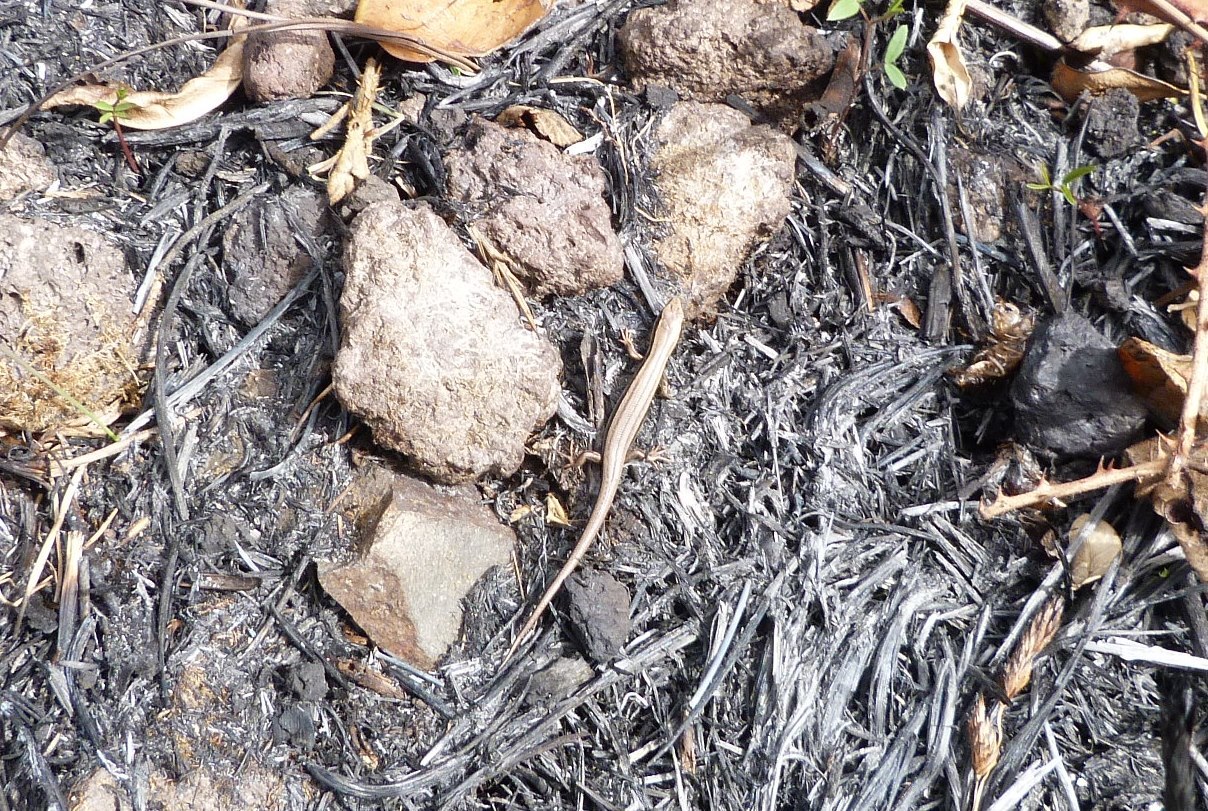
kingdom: Animalia
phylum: Chordata
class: Squamata
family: Scincidae
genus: Oligosoma
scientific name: Oligosoma polychroma
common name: Common new zealand skink
